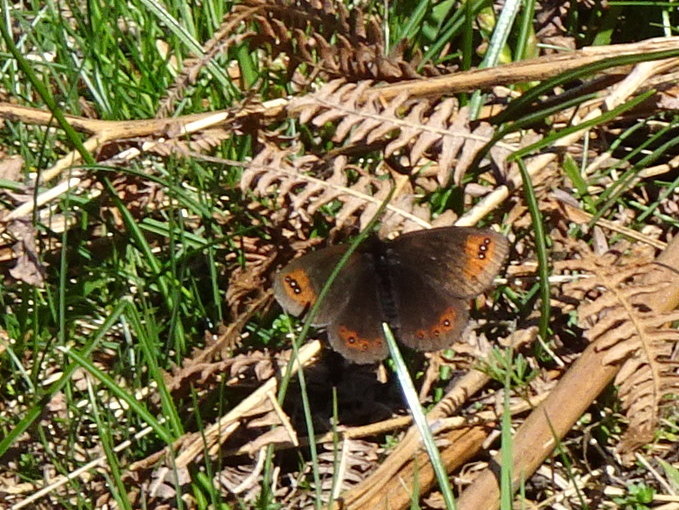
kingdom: Animalia
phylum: Arthropoda
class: Insecta
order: Lepidoptera
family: Nymphalidae
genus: Erebia
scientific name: Erebia triarius
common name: De prunner’s ringlet
